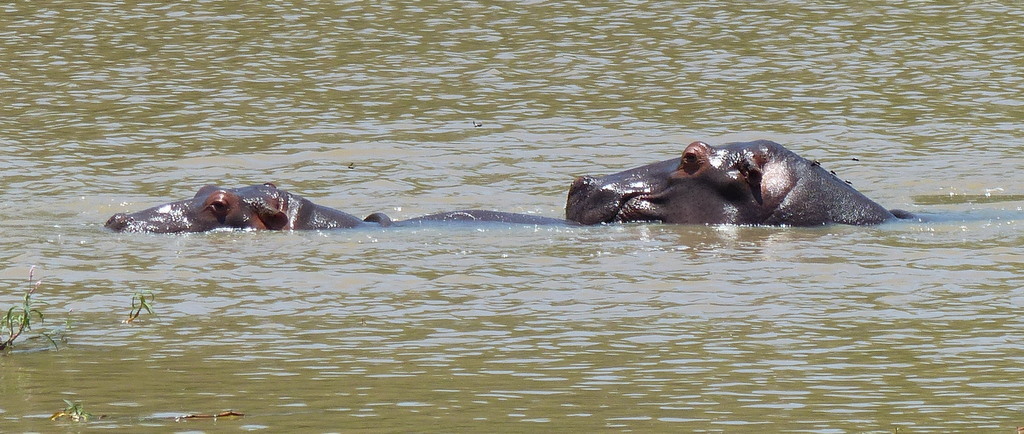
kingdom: Animalia
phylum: Chordata
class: Mammalia
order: Artiodactyla
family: Hippopotamidae
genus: Hippopotamus
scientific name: Hippopotamus amphibius
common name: Common hippopotamus
